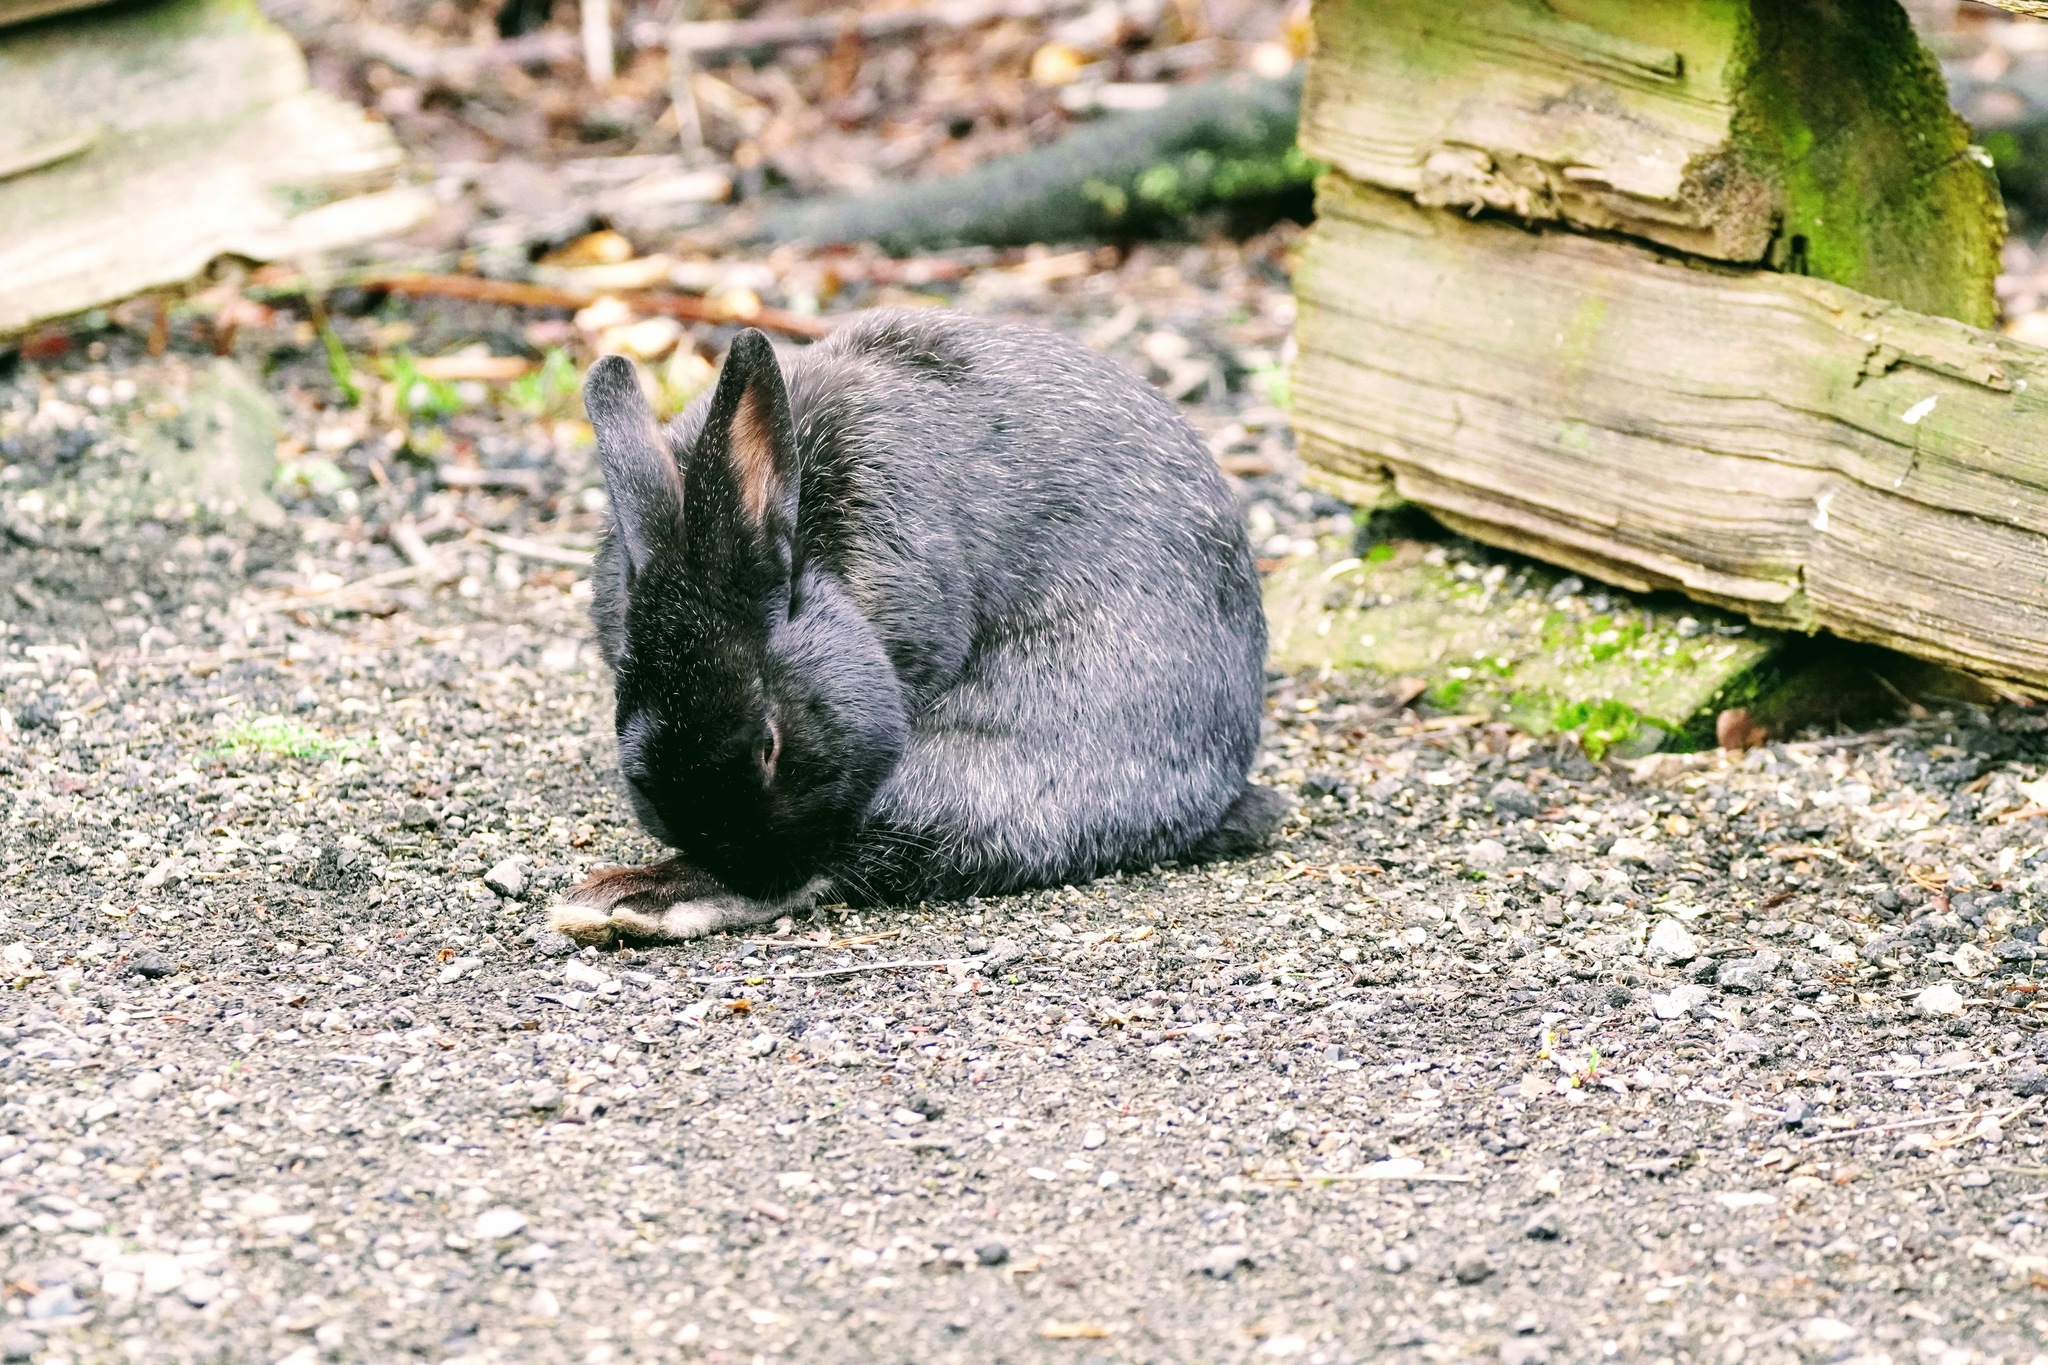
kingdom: Animalia
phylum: Chordata
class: Mammalia
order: Lagomorpha
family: Leporidae
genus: Oryctolagus
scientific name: Oryctolagus cuniculus
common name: European rabbit
